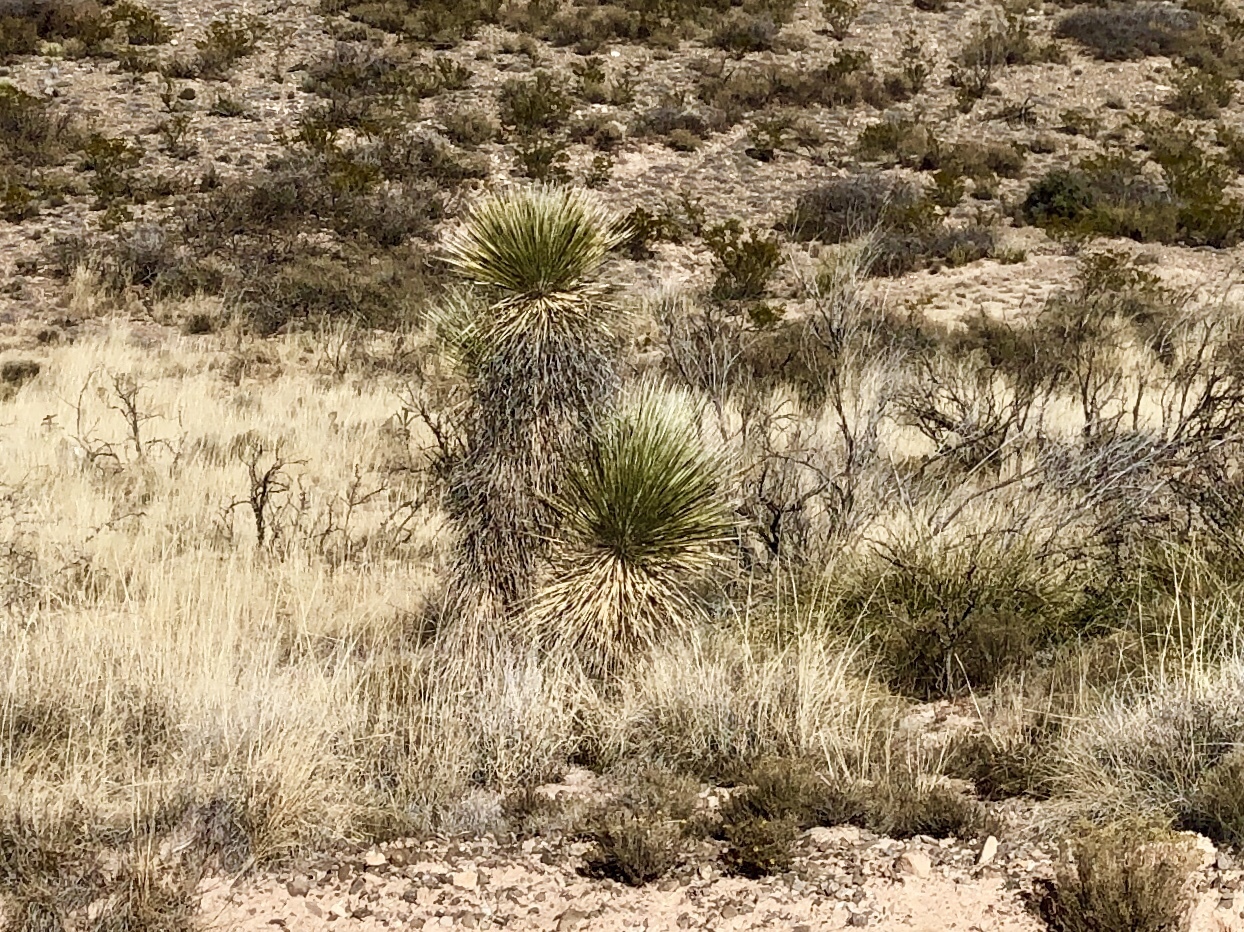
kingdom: Plantae
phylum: Tracheophyta
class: Liliopsida
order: Asparagales
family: Asparagaceae
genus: Yucca
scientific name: Yucca elata
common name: Palmella
